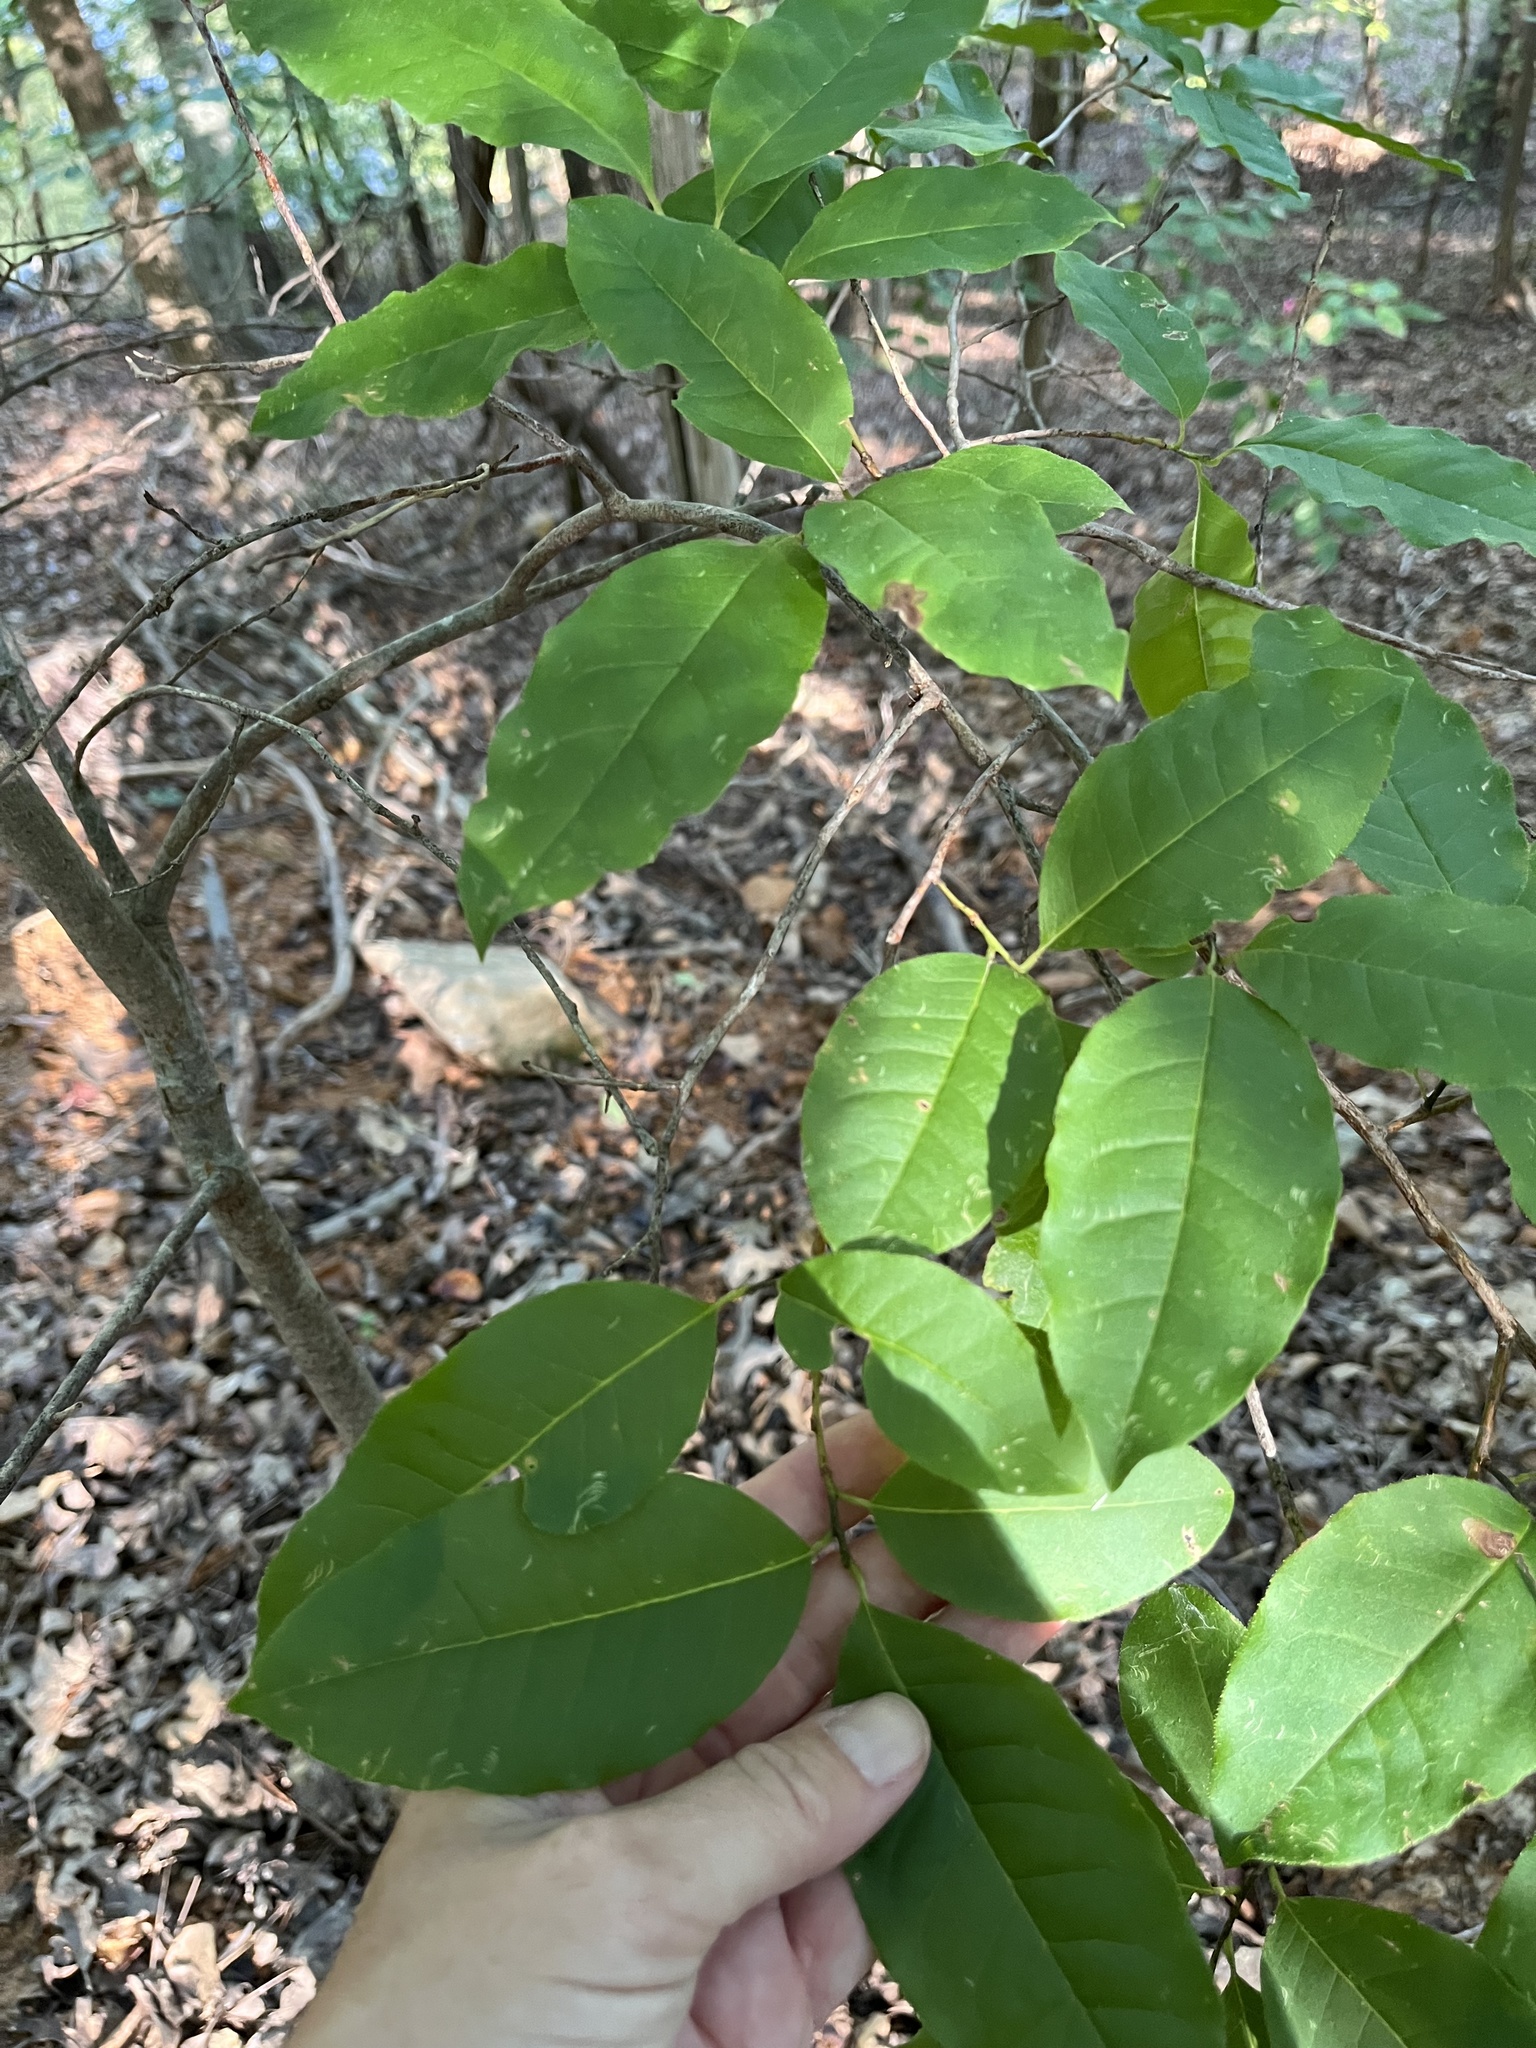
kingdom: Plantae
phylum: Tracheophyta
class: Magnoliopsida
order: Ericales
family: Ericaceae
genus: Oxydendrum
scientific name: Oxydendrum arboreum
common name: Sourwood
